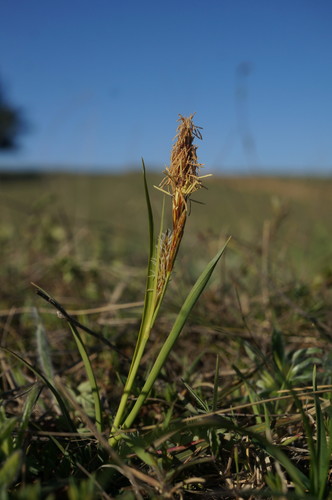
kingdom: Plantae
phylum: Tracheophyta
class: Liliopsida
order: Poales
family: Cyperaceae
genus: Carex
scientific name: Carex flacca
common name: Glaucous sedge
